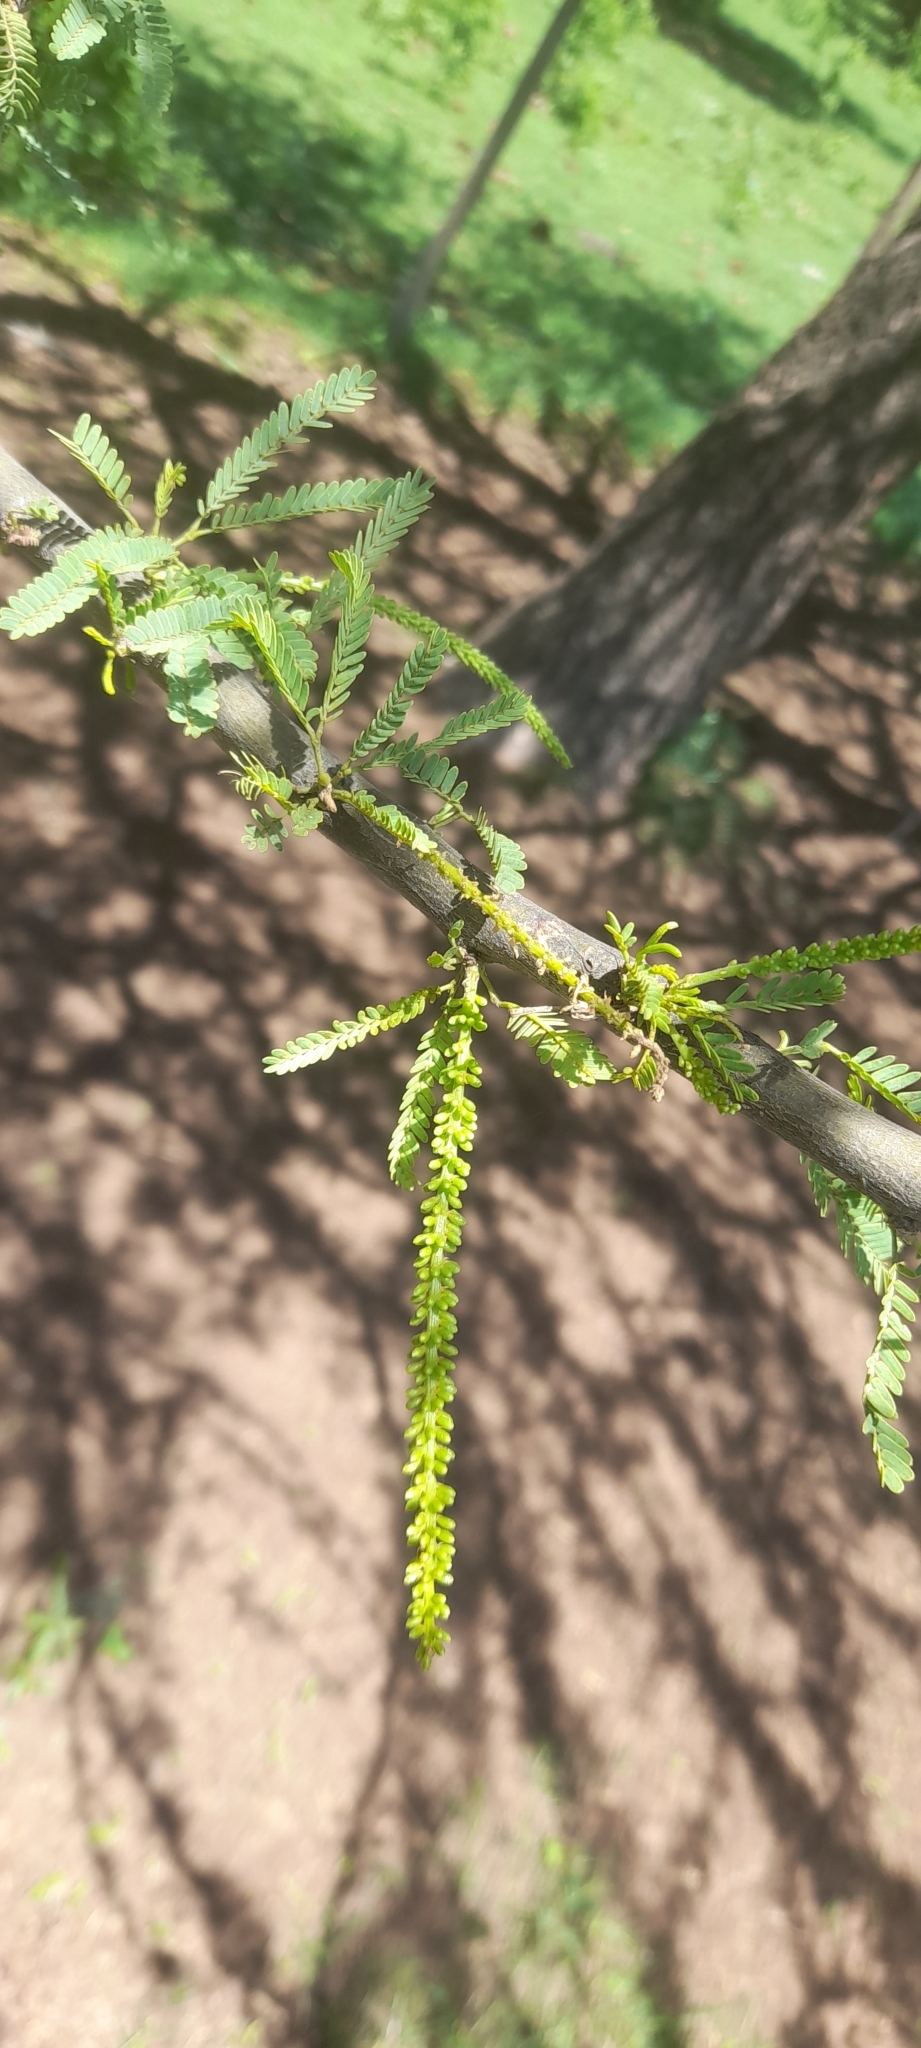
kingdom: Plantae
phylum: Tracheophyta
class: Magnoliopsida
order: Fabales
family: Fabaceae
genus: Prosopis
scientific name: Prosopis affinis
